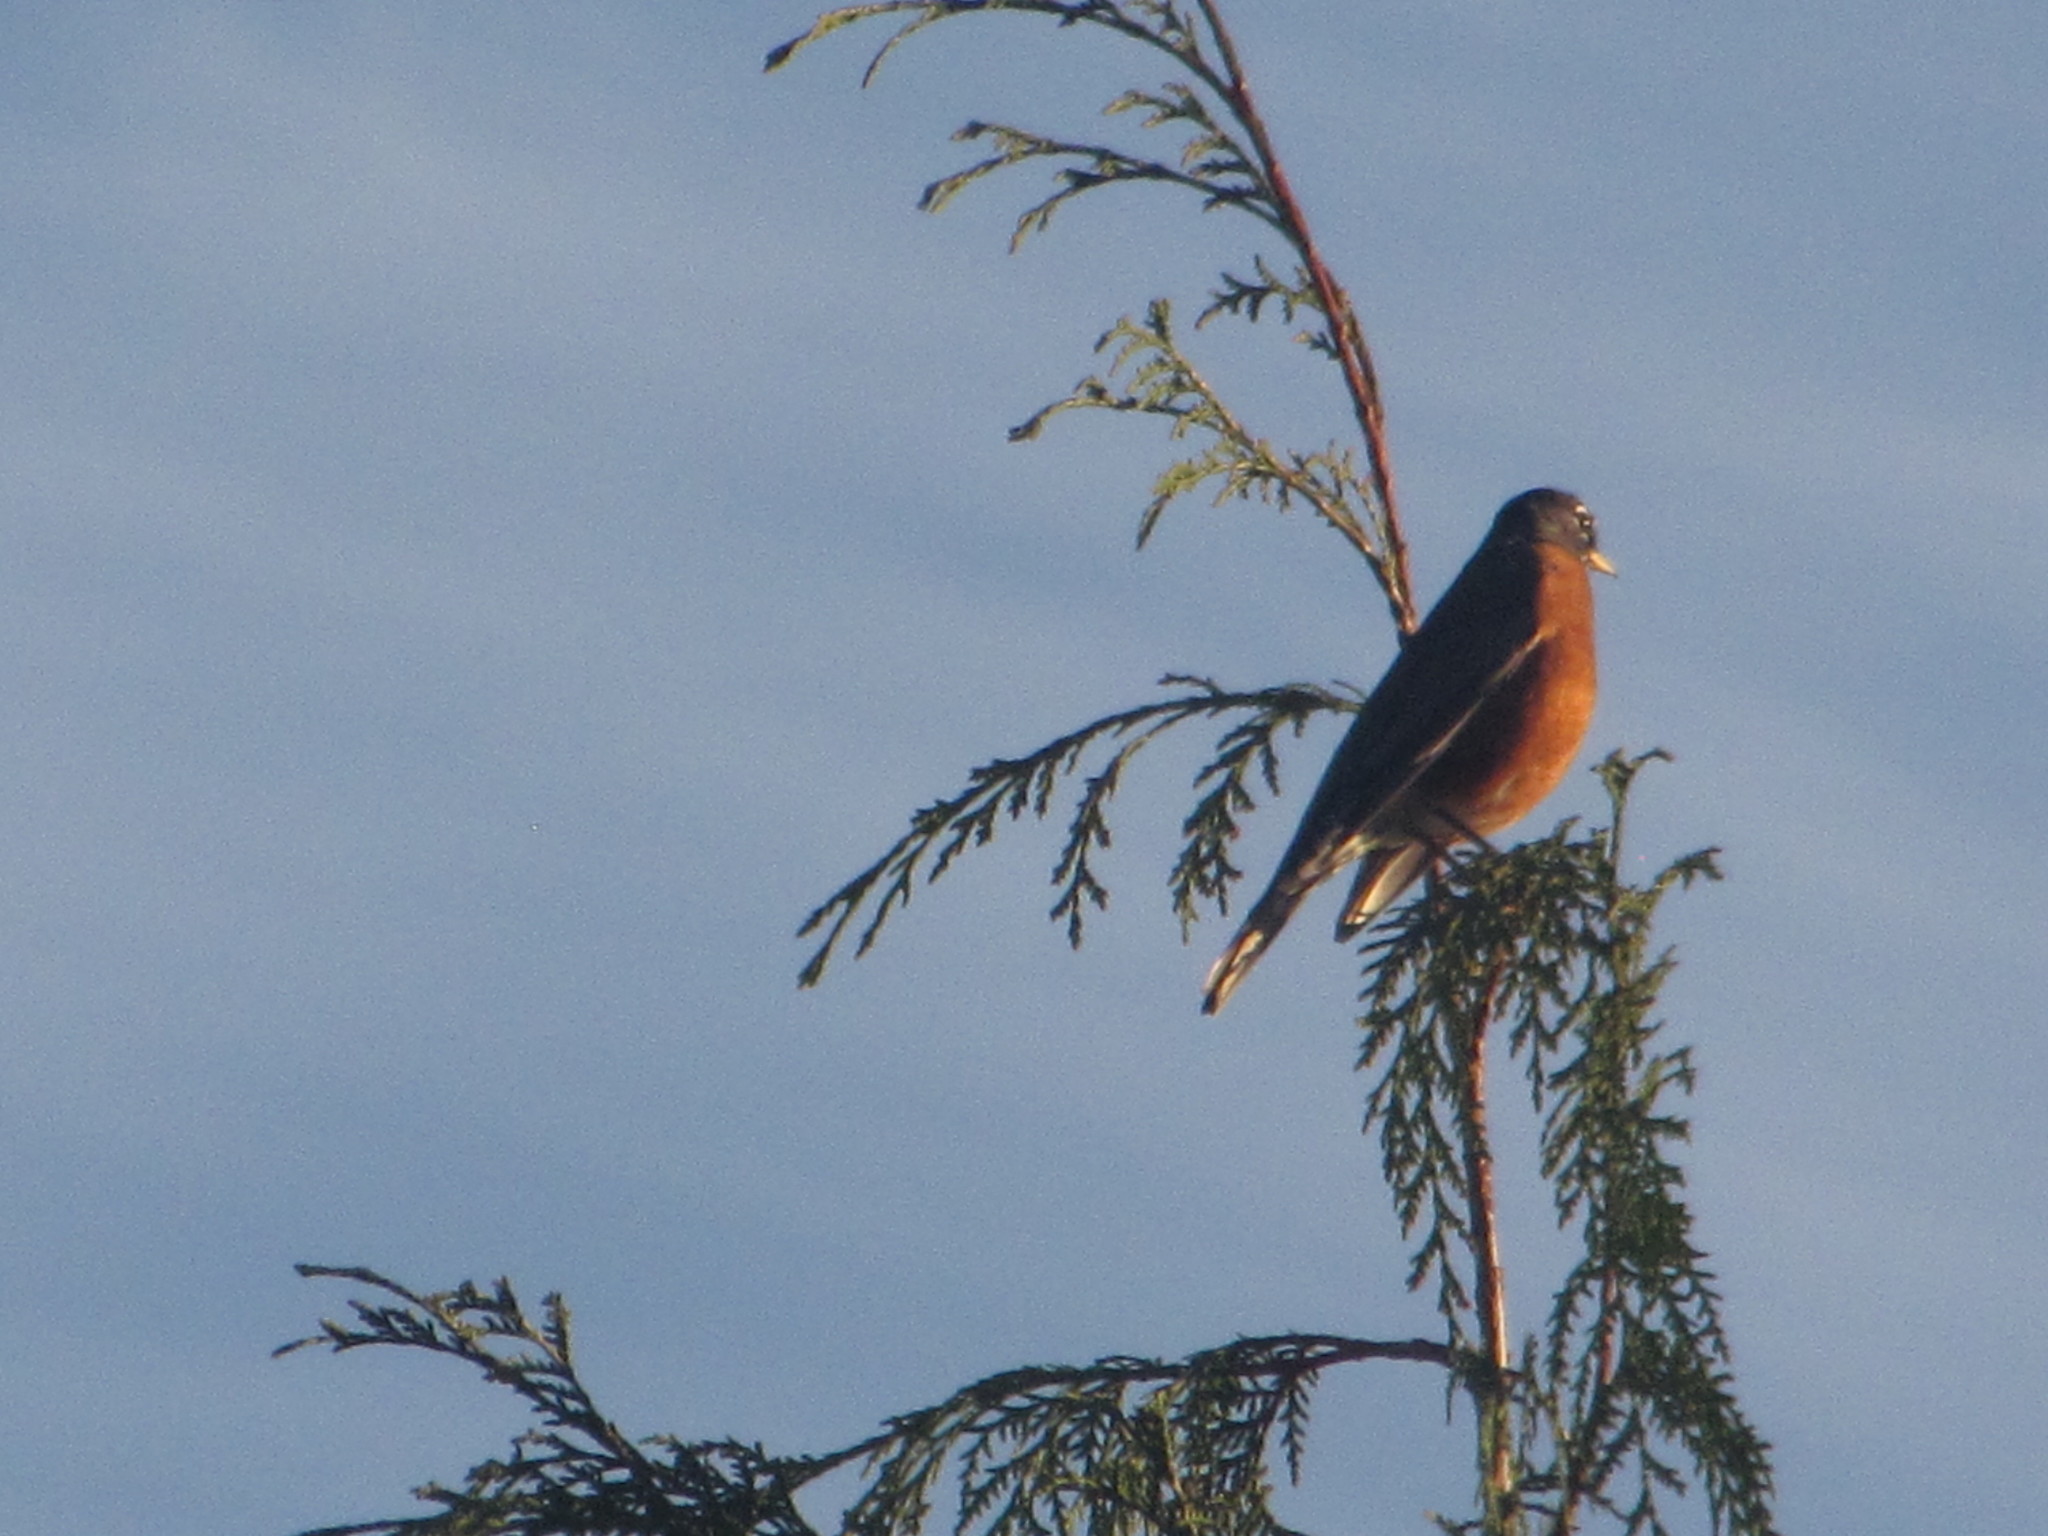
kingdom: Animalia
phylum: Chordata
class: Aves
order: Passeriformes
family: Turdidae
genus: Turdus
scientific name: Turdus migratorius
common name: American robin
